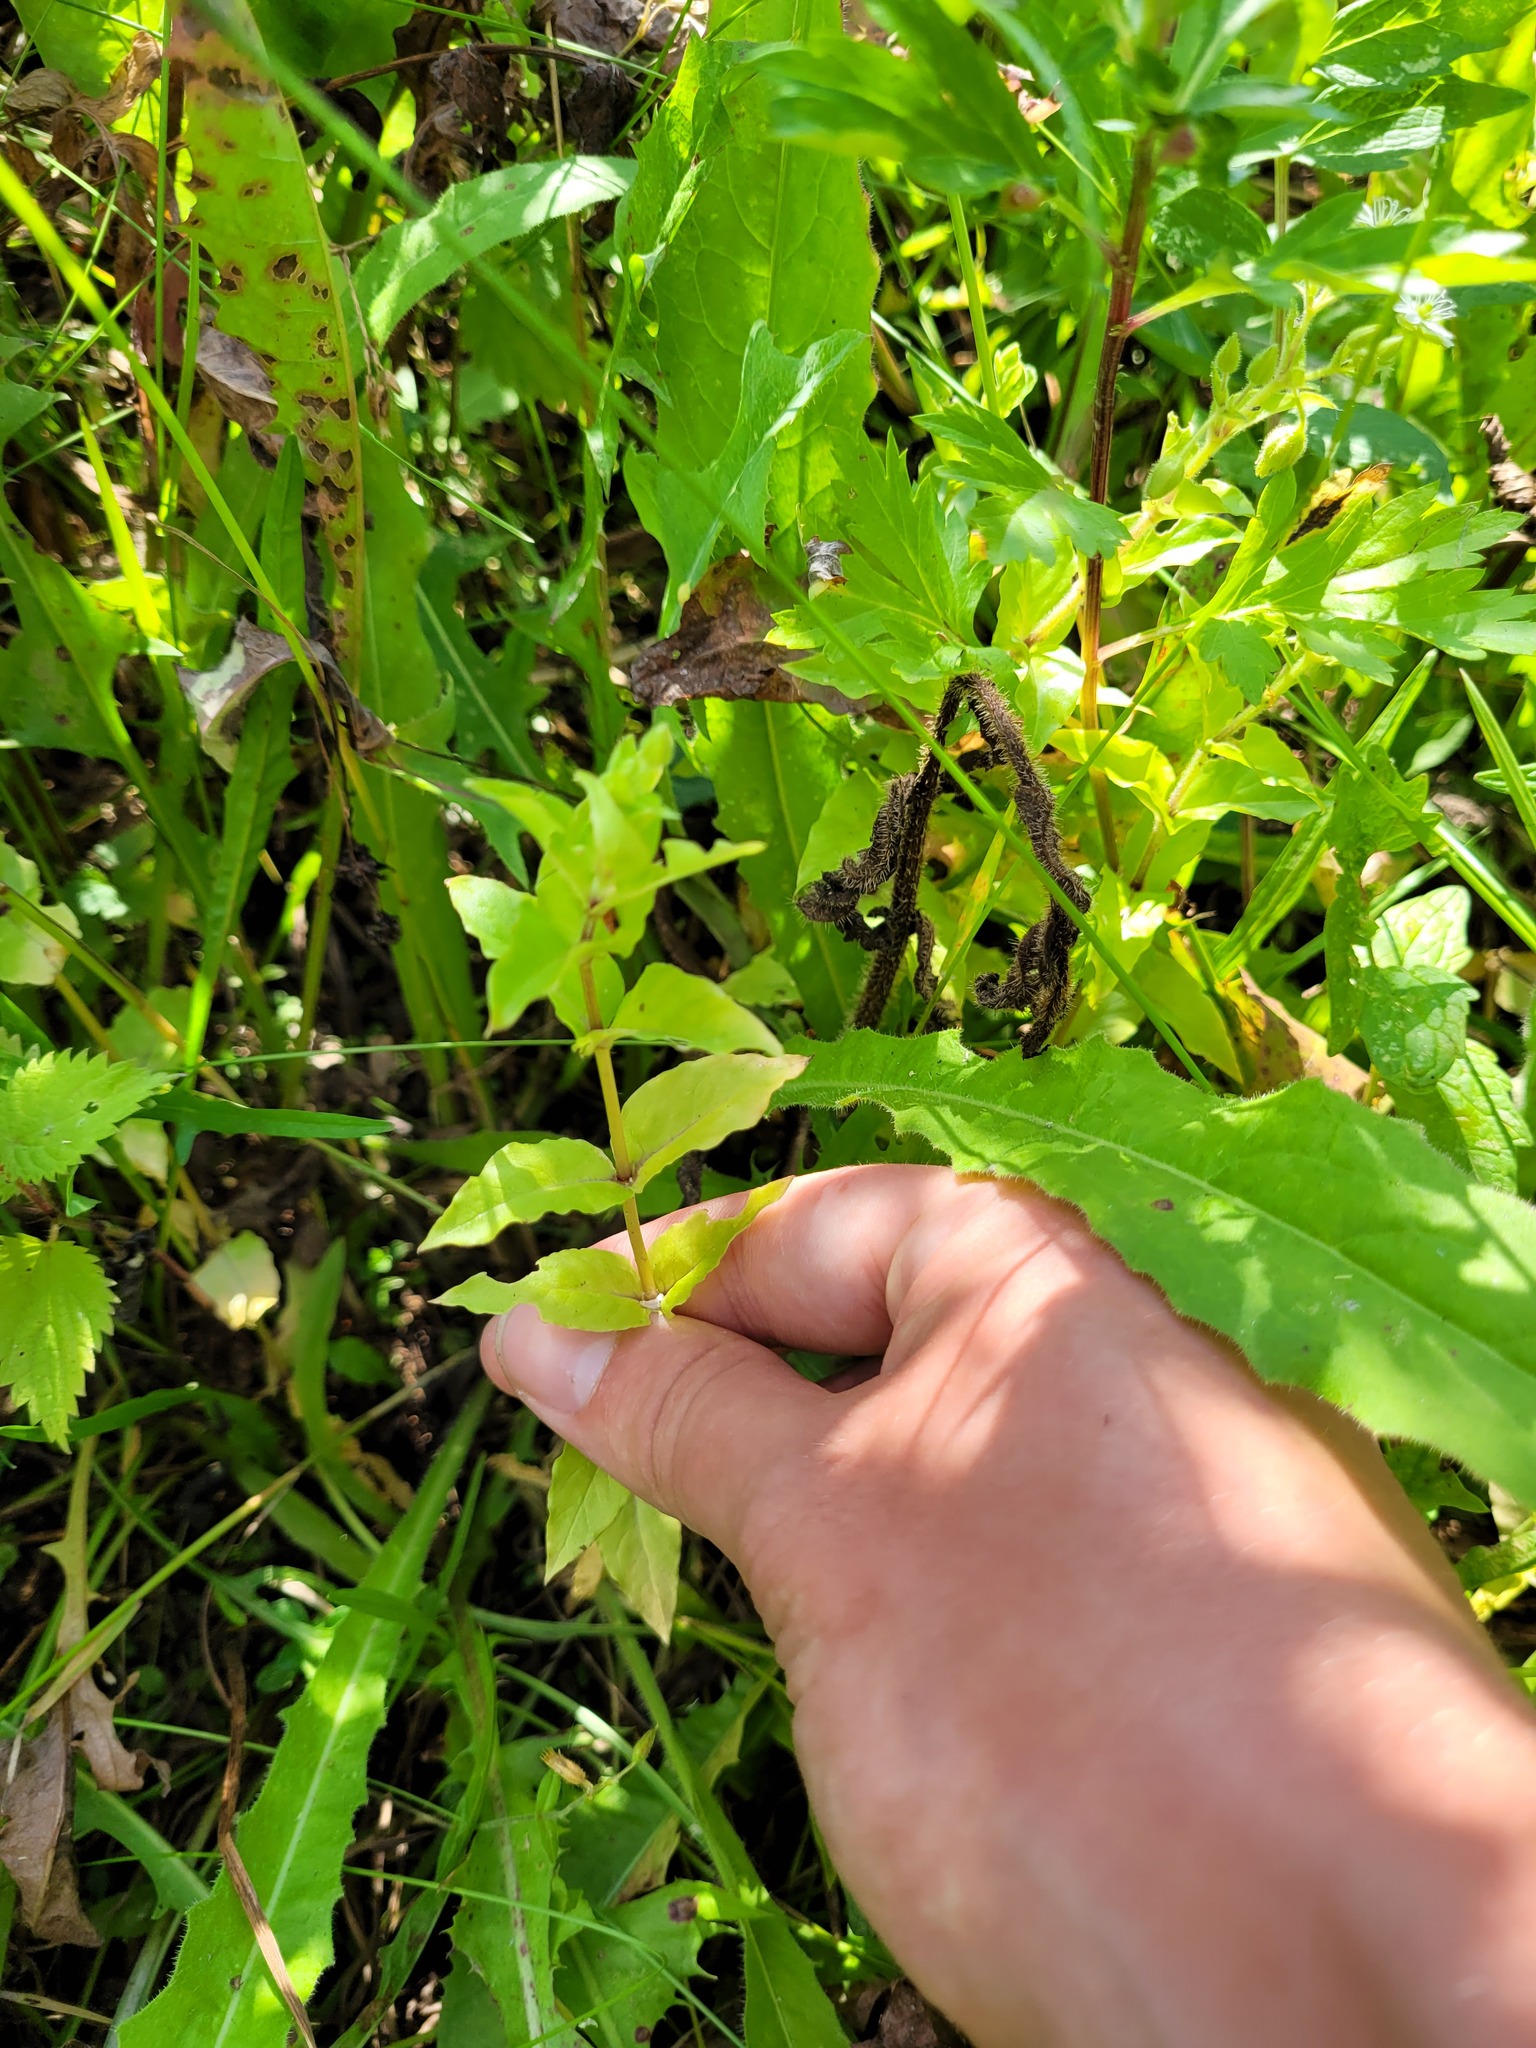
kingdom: Plantae
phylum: Tracheophyta
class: Magnoliopsida
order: Caryophyllales
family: Caryophyllaceae
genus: Stellaria
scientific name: Stellaria aquatica
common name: Water chickweed
